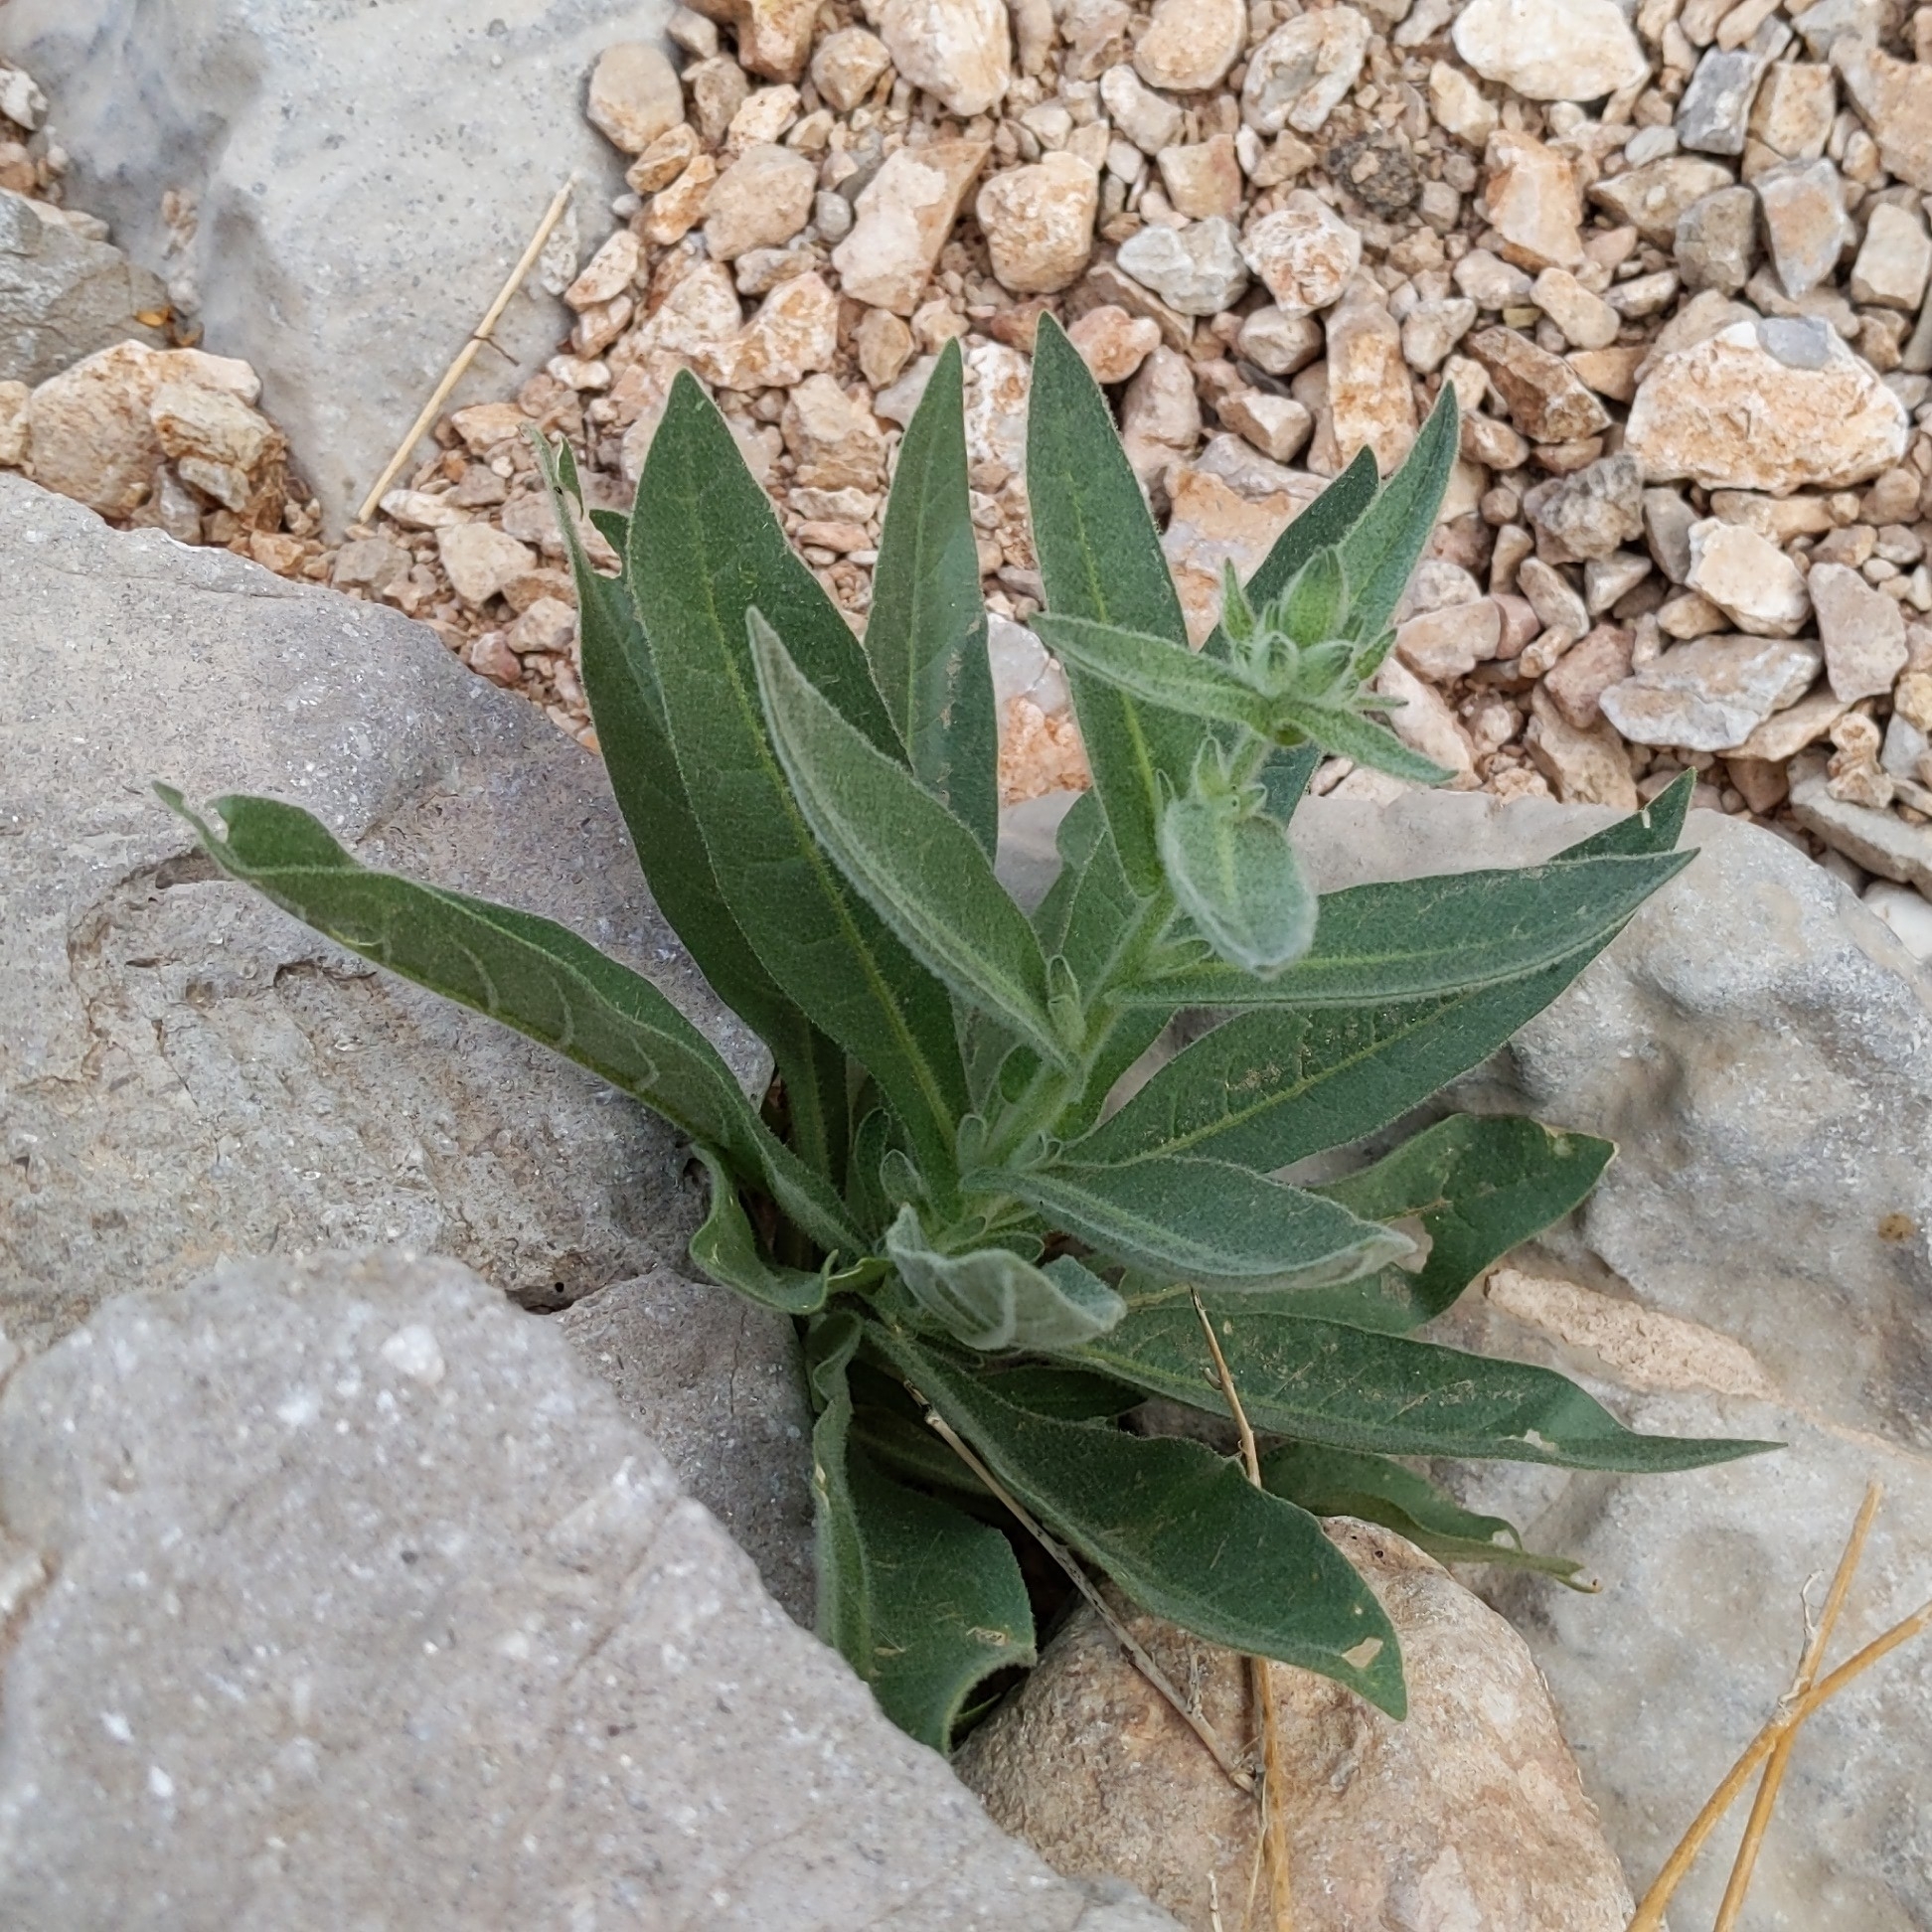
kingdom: Plantae
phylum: Tracheophyta
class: Magnoliopsida
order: Solanales
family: Solanaceae
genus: Nicotiana
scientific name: Nicotiana obtusifolia
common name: Desert tobacco
